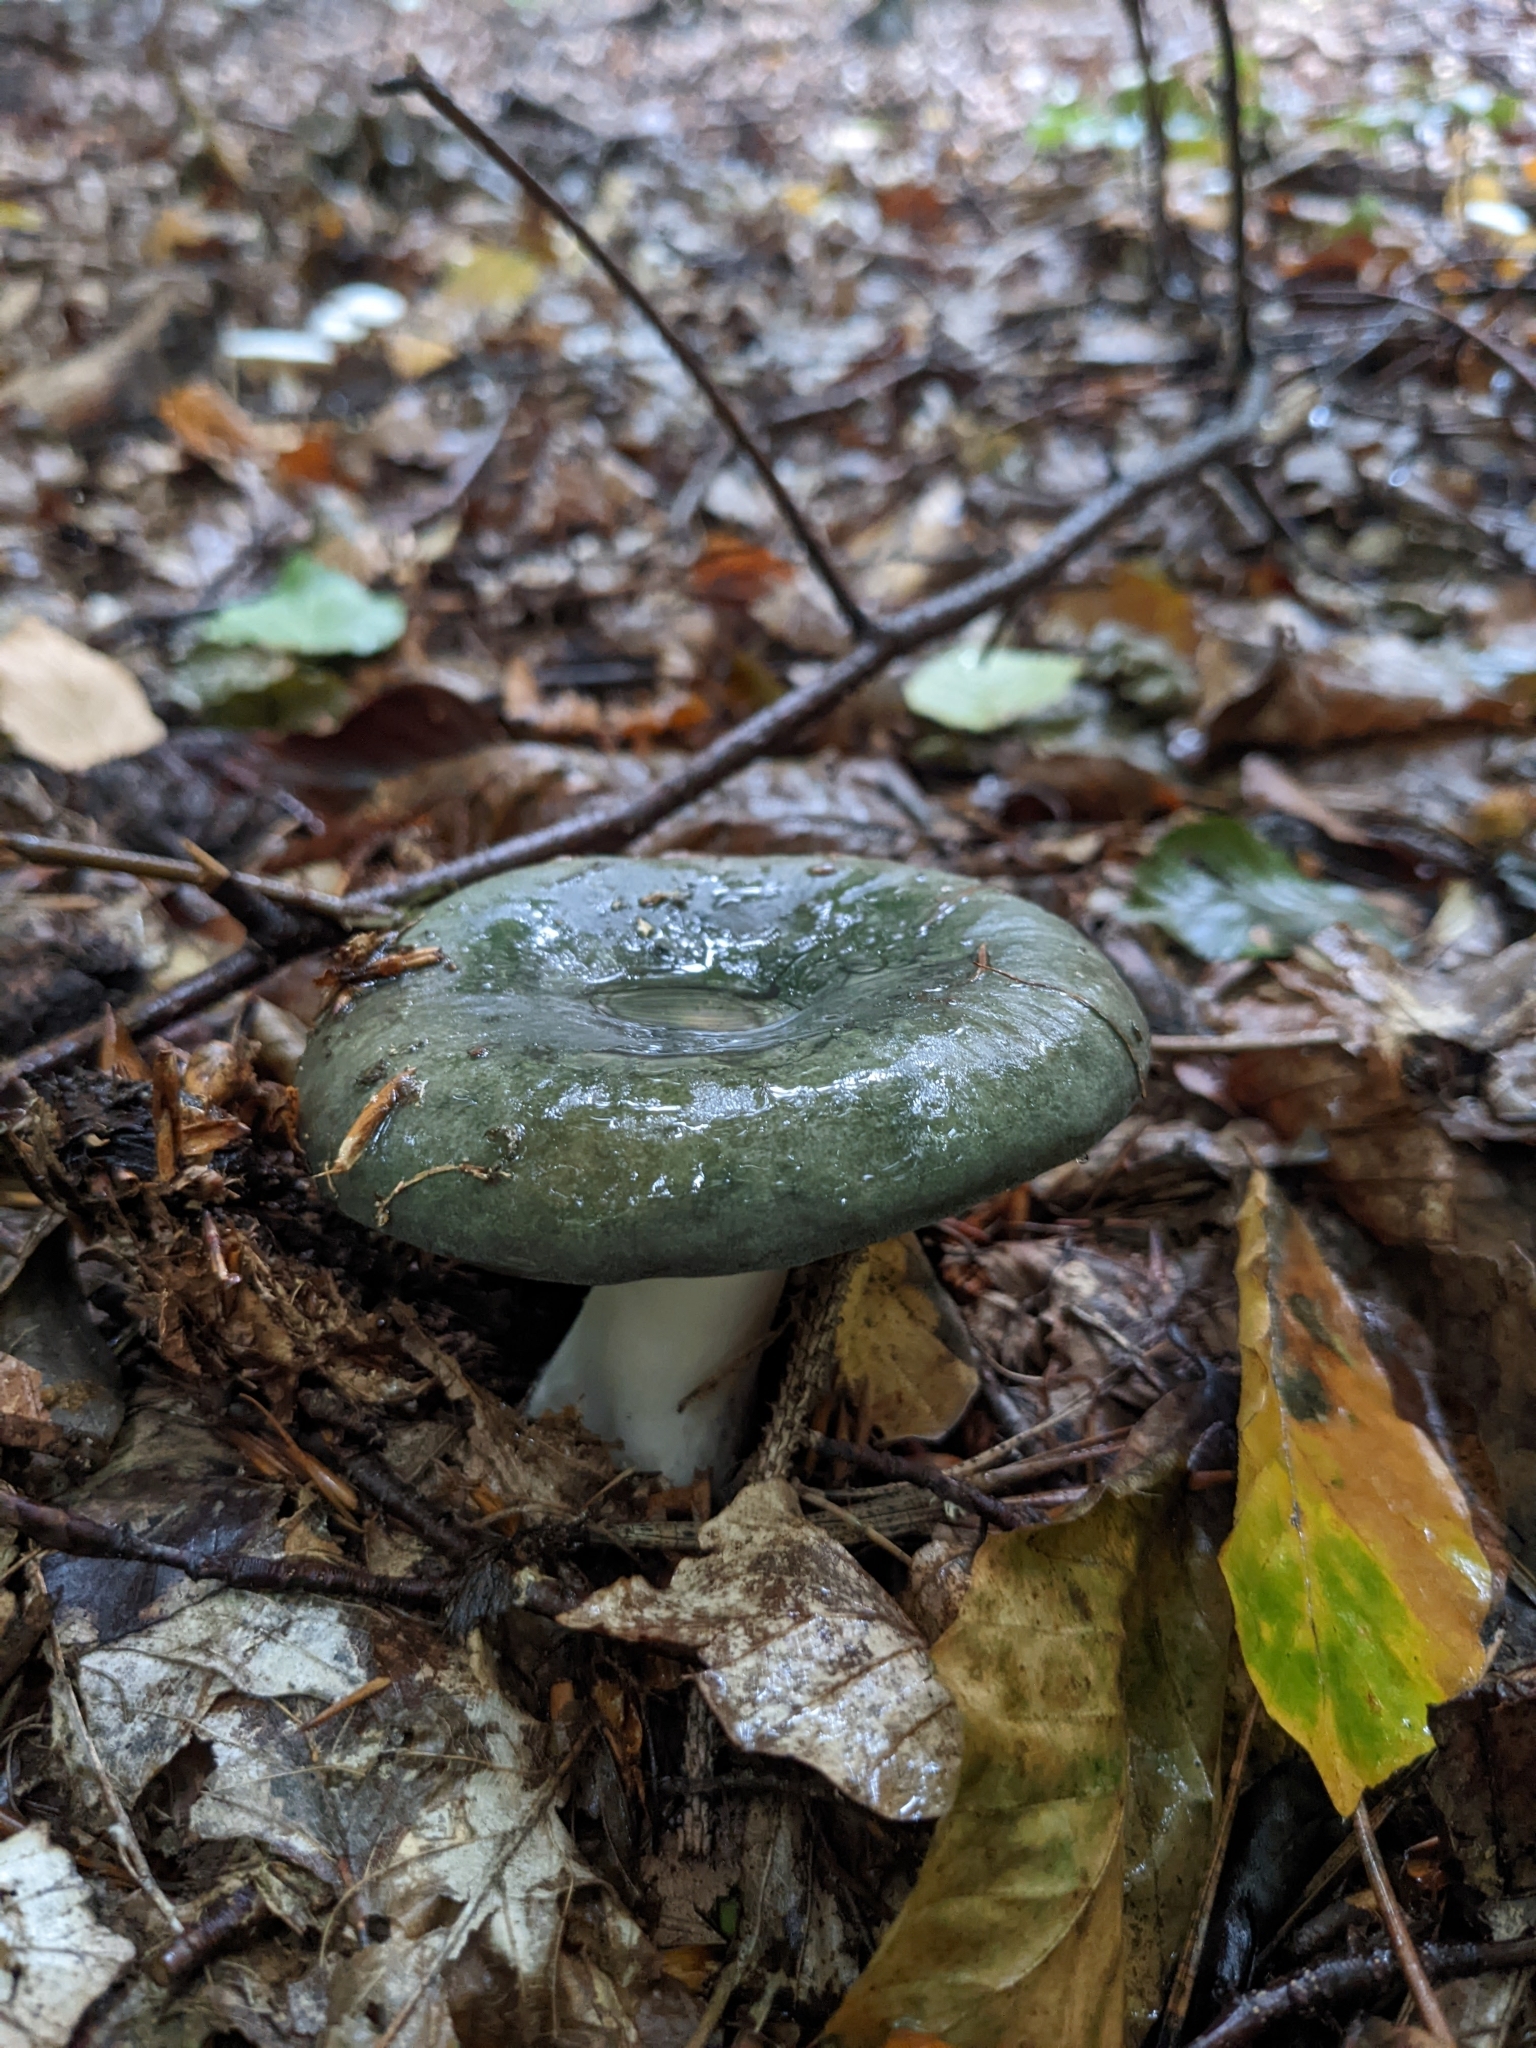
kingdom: Fungi
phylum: Basidiomycota
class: Agaricomycetes
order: Russulales
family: Russulaceae
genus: Russula
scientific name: Russula cyanoxantha
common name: Charcoal burner
